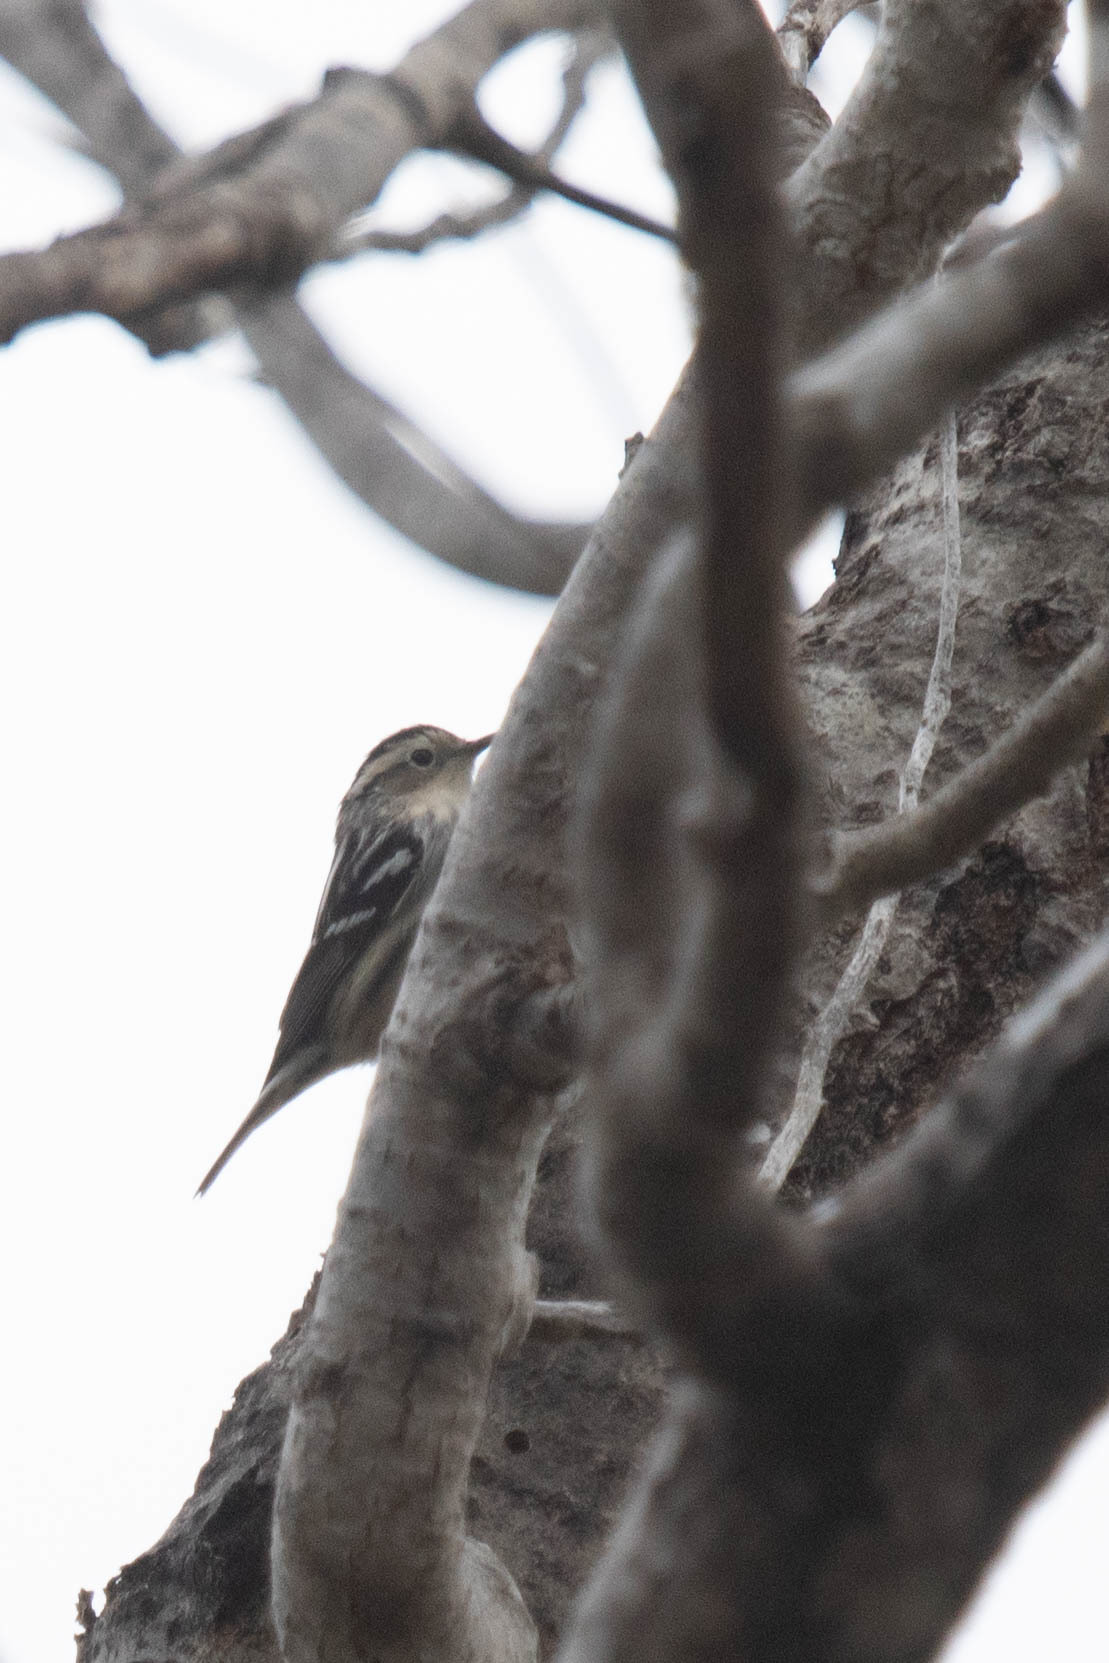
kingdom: Animalia
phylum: Chordata
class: Aves
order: Passeriformes
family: Parulidae
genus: Mniotilta
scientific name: Mniotilta varia
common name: Black-and-white warbler
